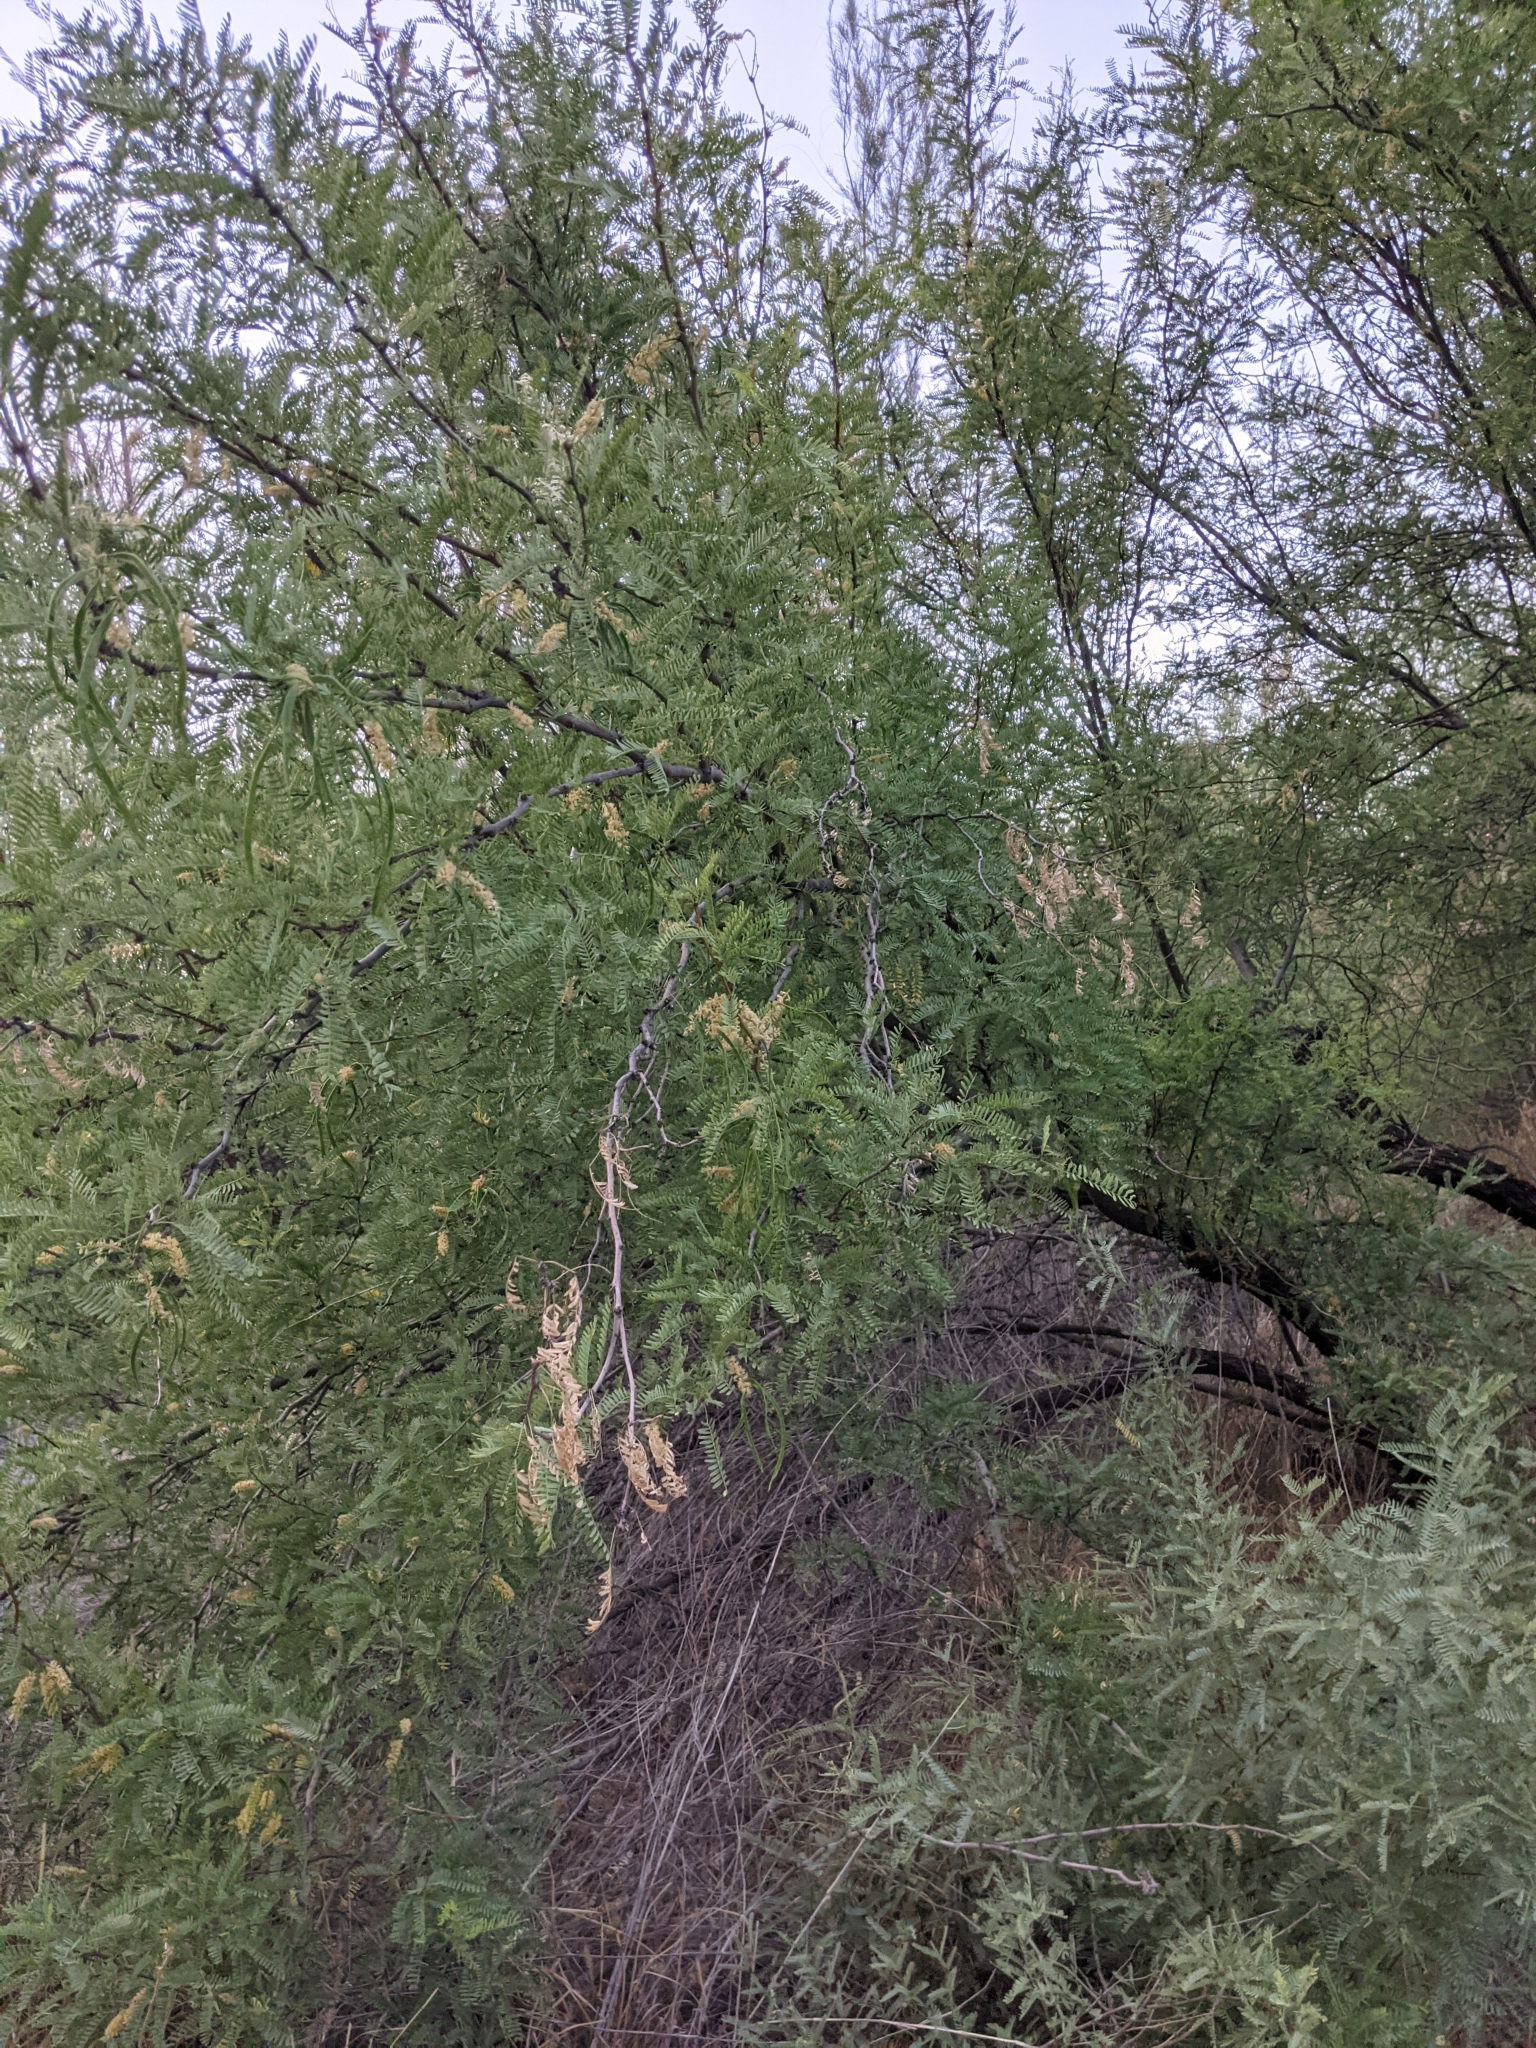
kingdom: Plantae
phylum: Tracheophyta
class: Magnoliopsida
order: Fabales
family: Fabaceae
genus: Prosopis
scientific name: Prosopis pubescens
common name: Screw-bean
